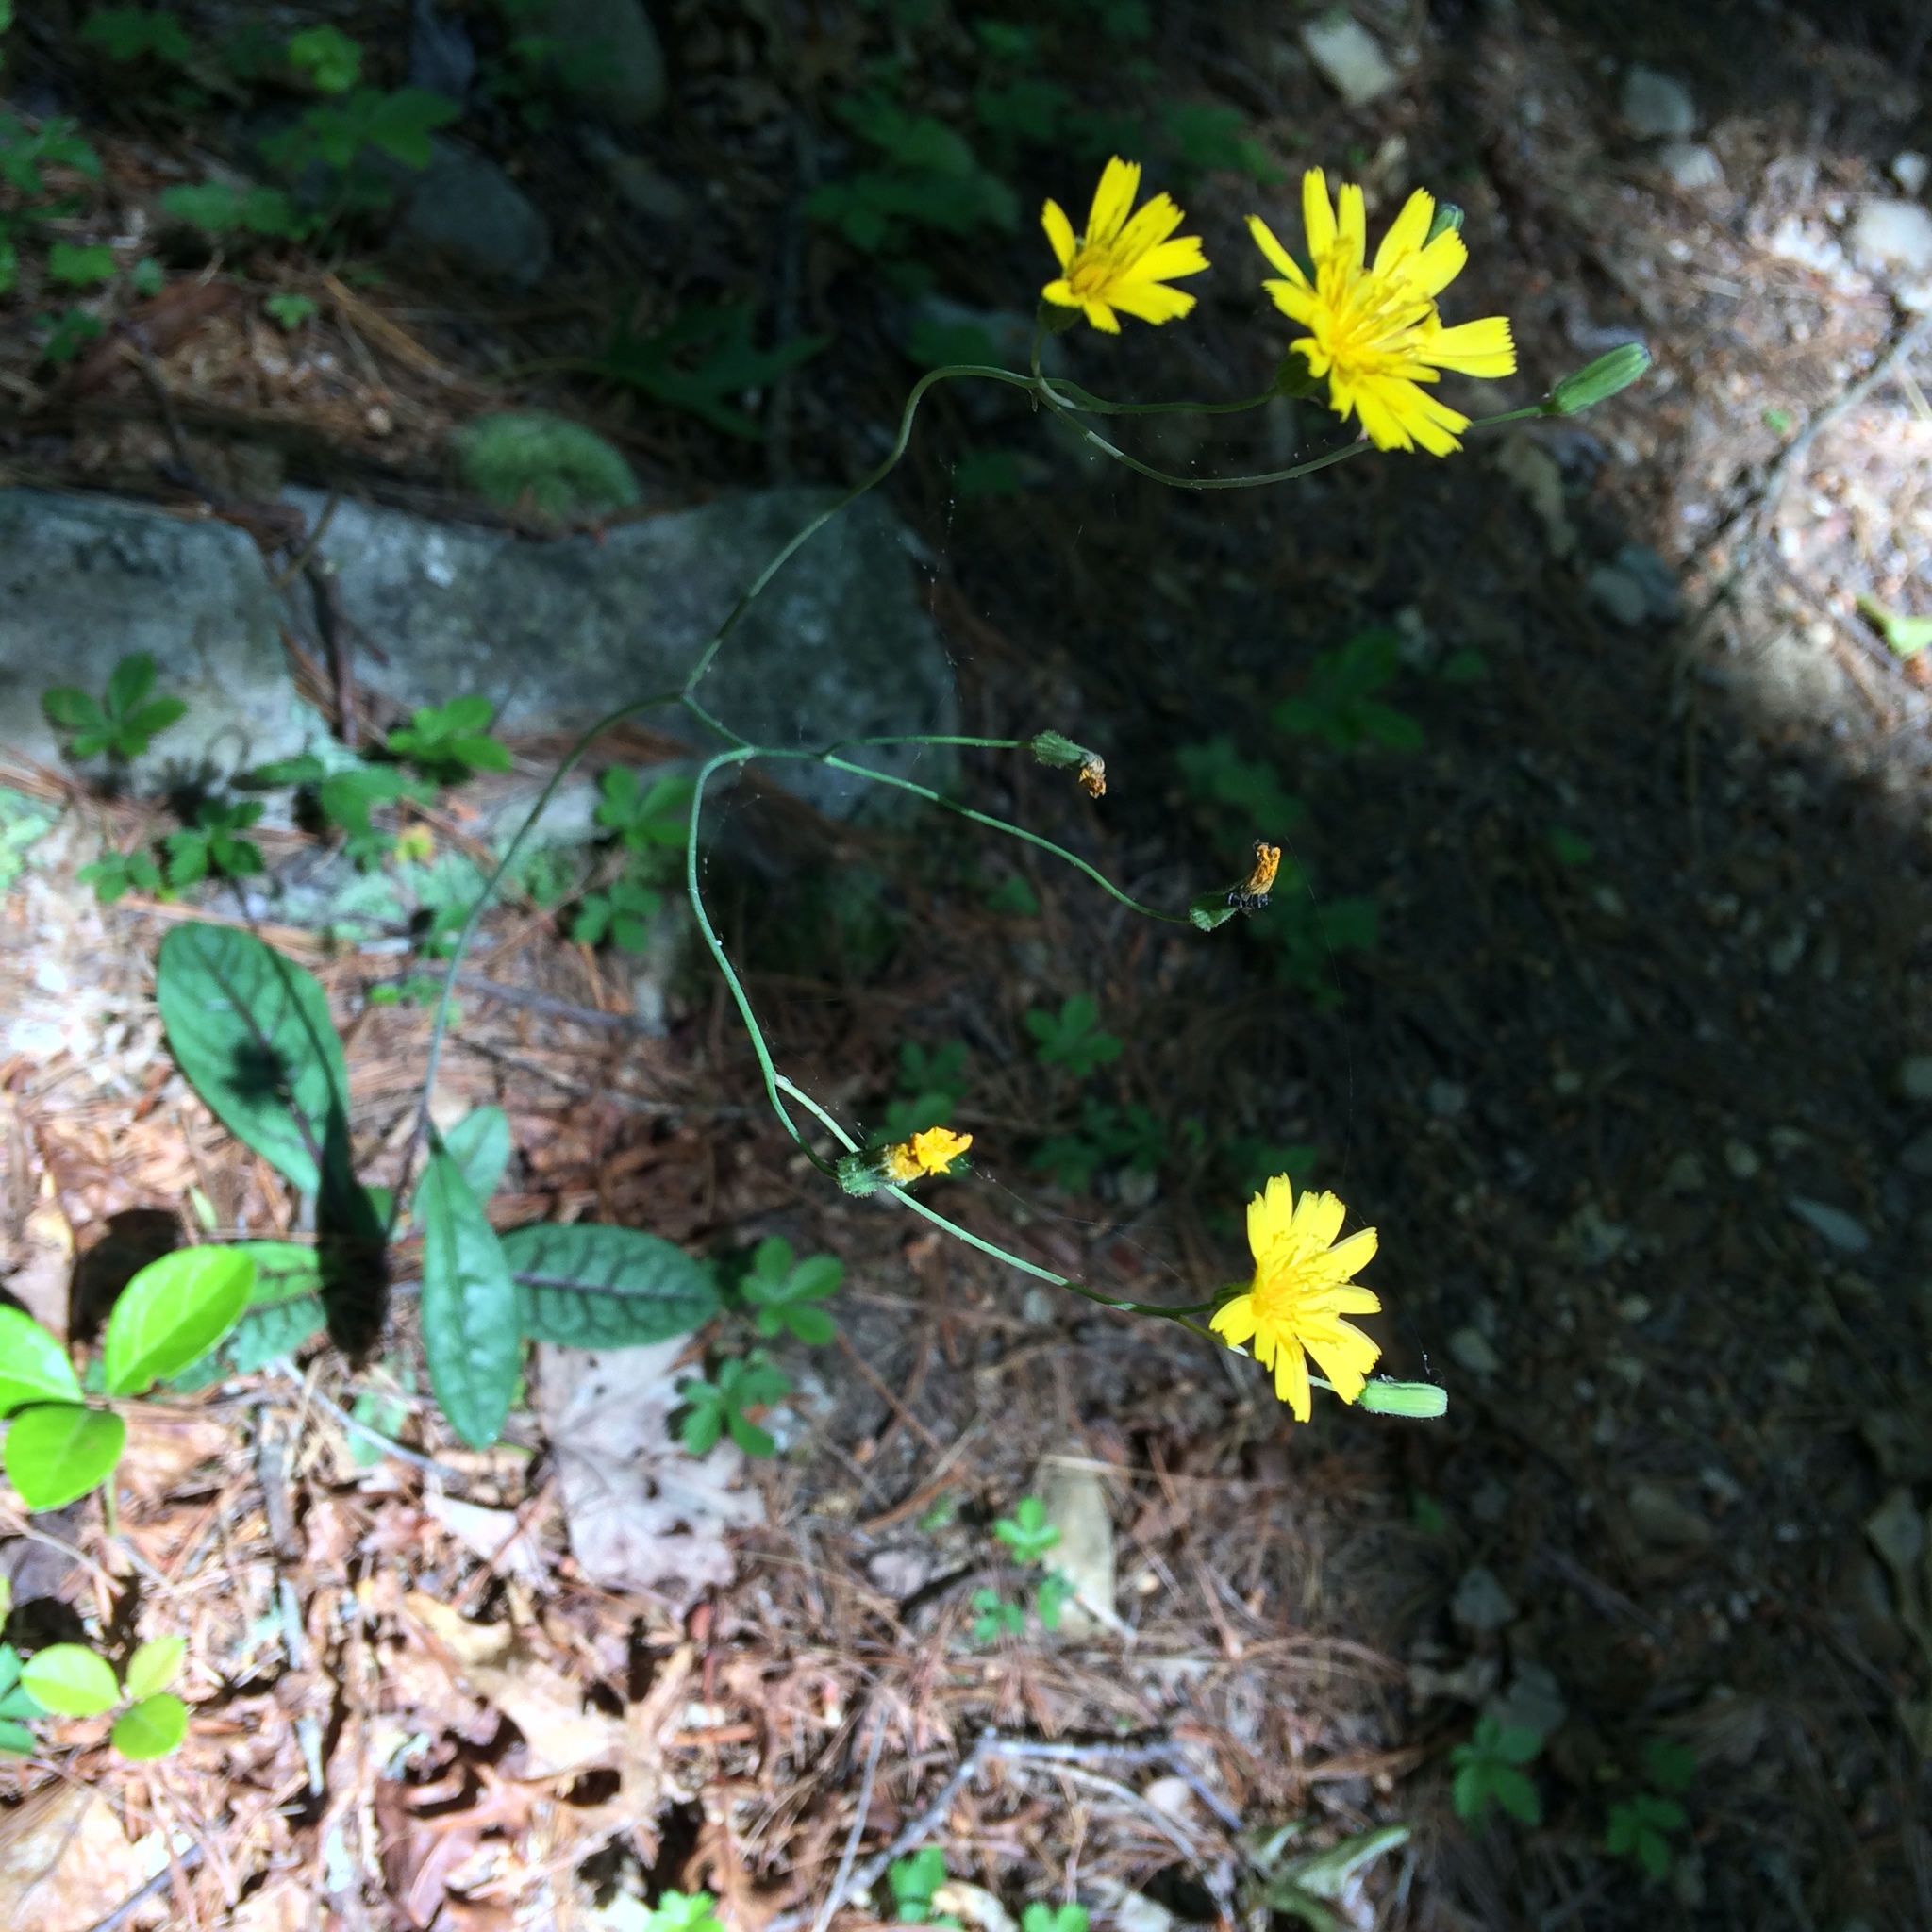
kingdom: Plantae
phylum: Tracheophyta
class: Magnoliopsida
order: Asterales
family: Asteraceae
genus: Hieracium
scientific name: Hieracium venosum
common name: Rattlesnake hawkweed
